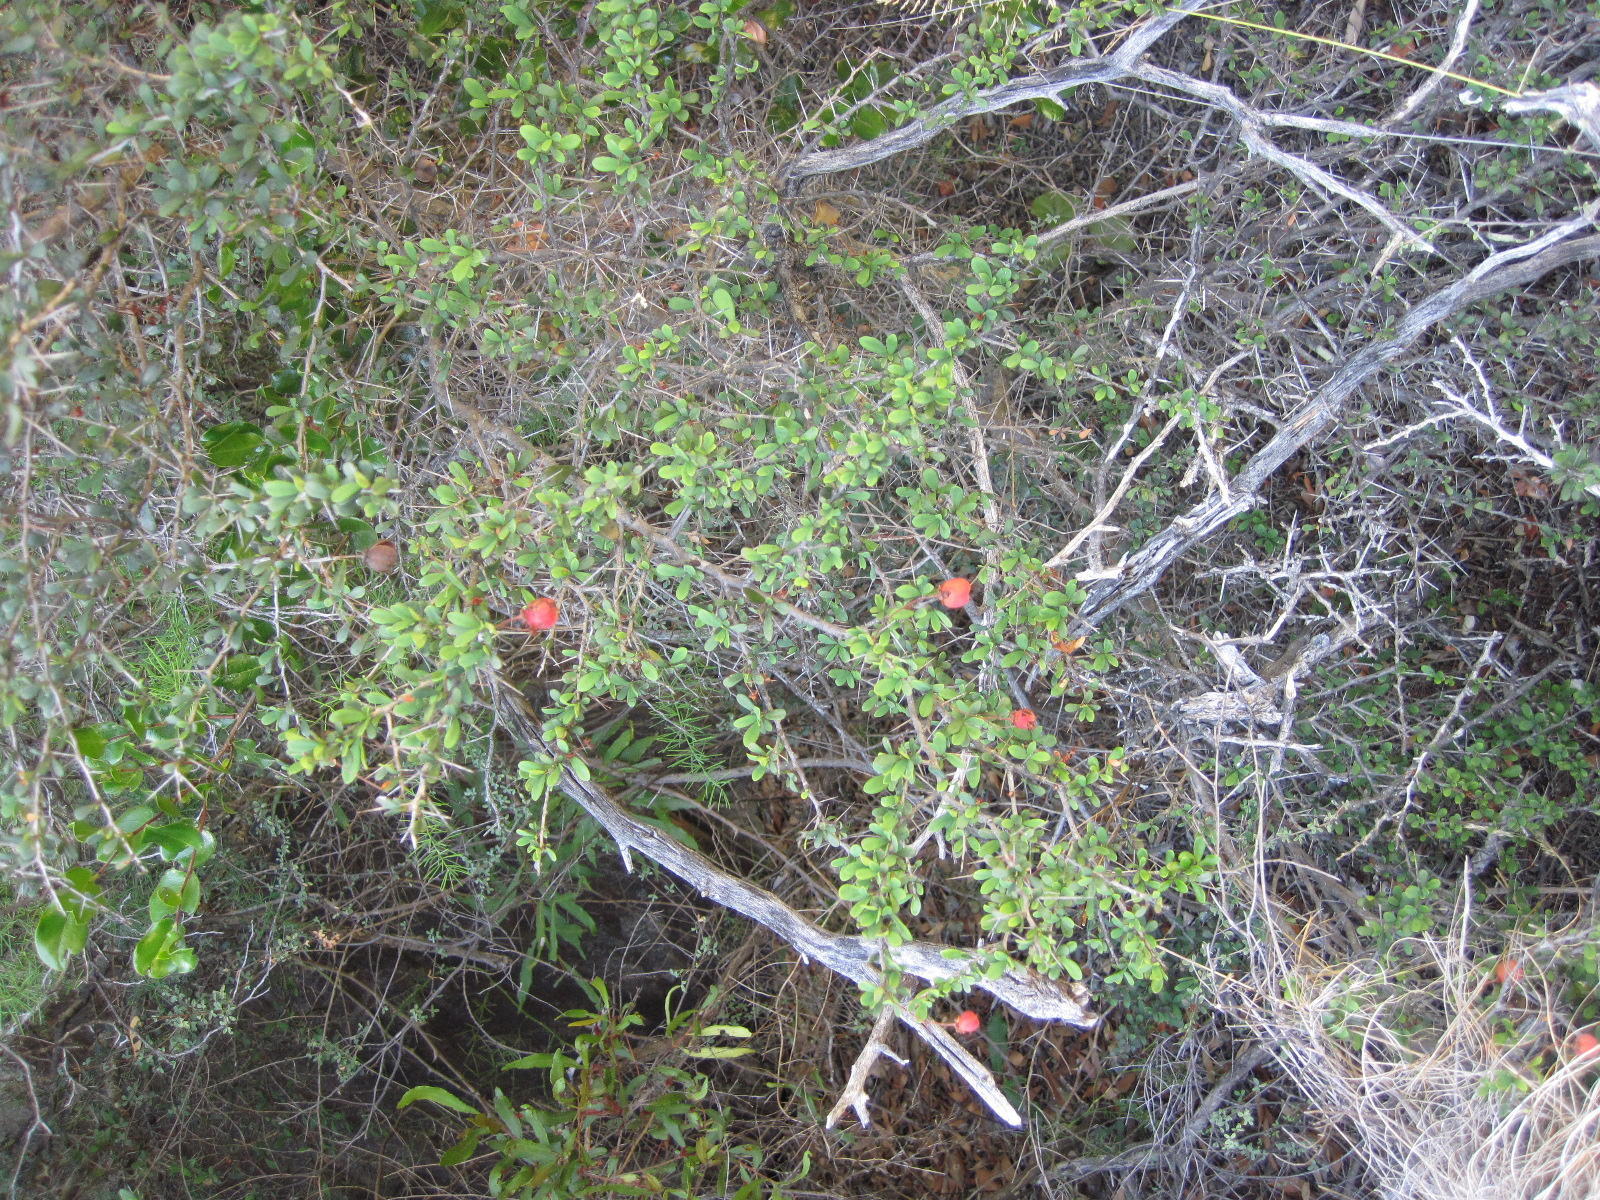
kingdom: Plantae
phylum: Tracheophyta
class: Magnoliopsida
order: Celastrales
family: Celastraceae
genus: Putterlickia
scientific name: Putterlickia pyracantha
